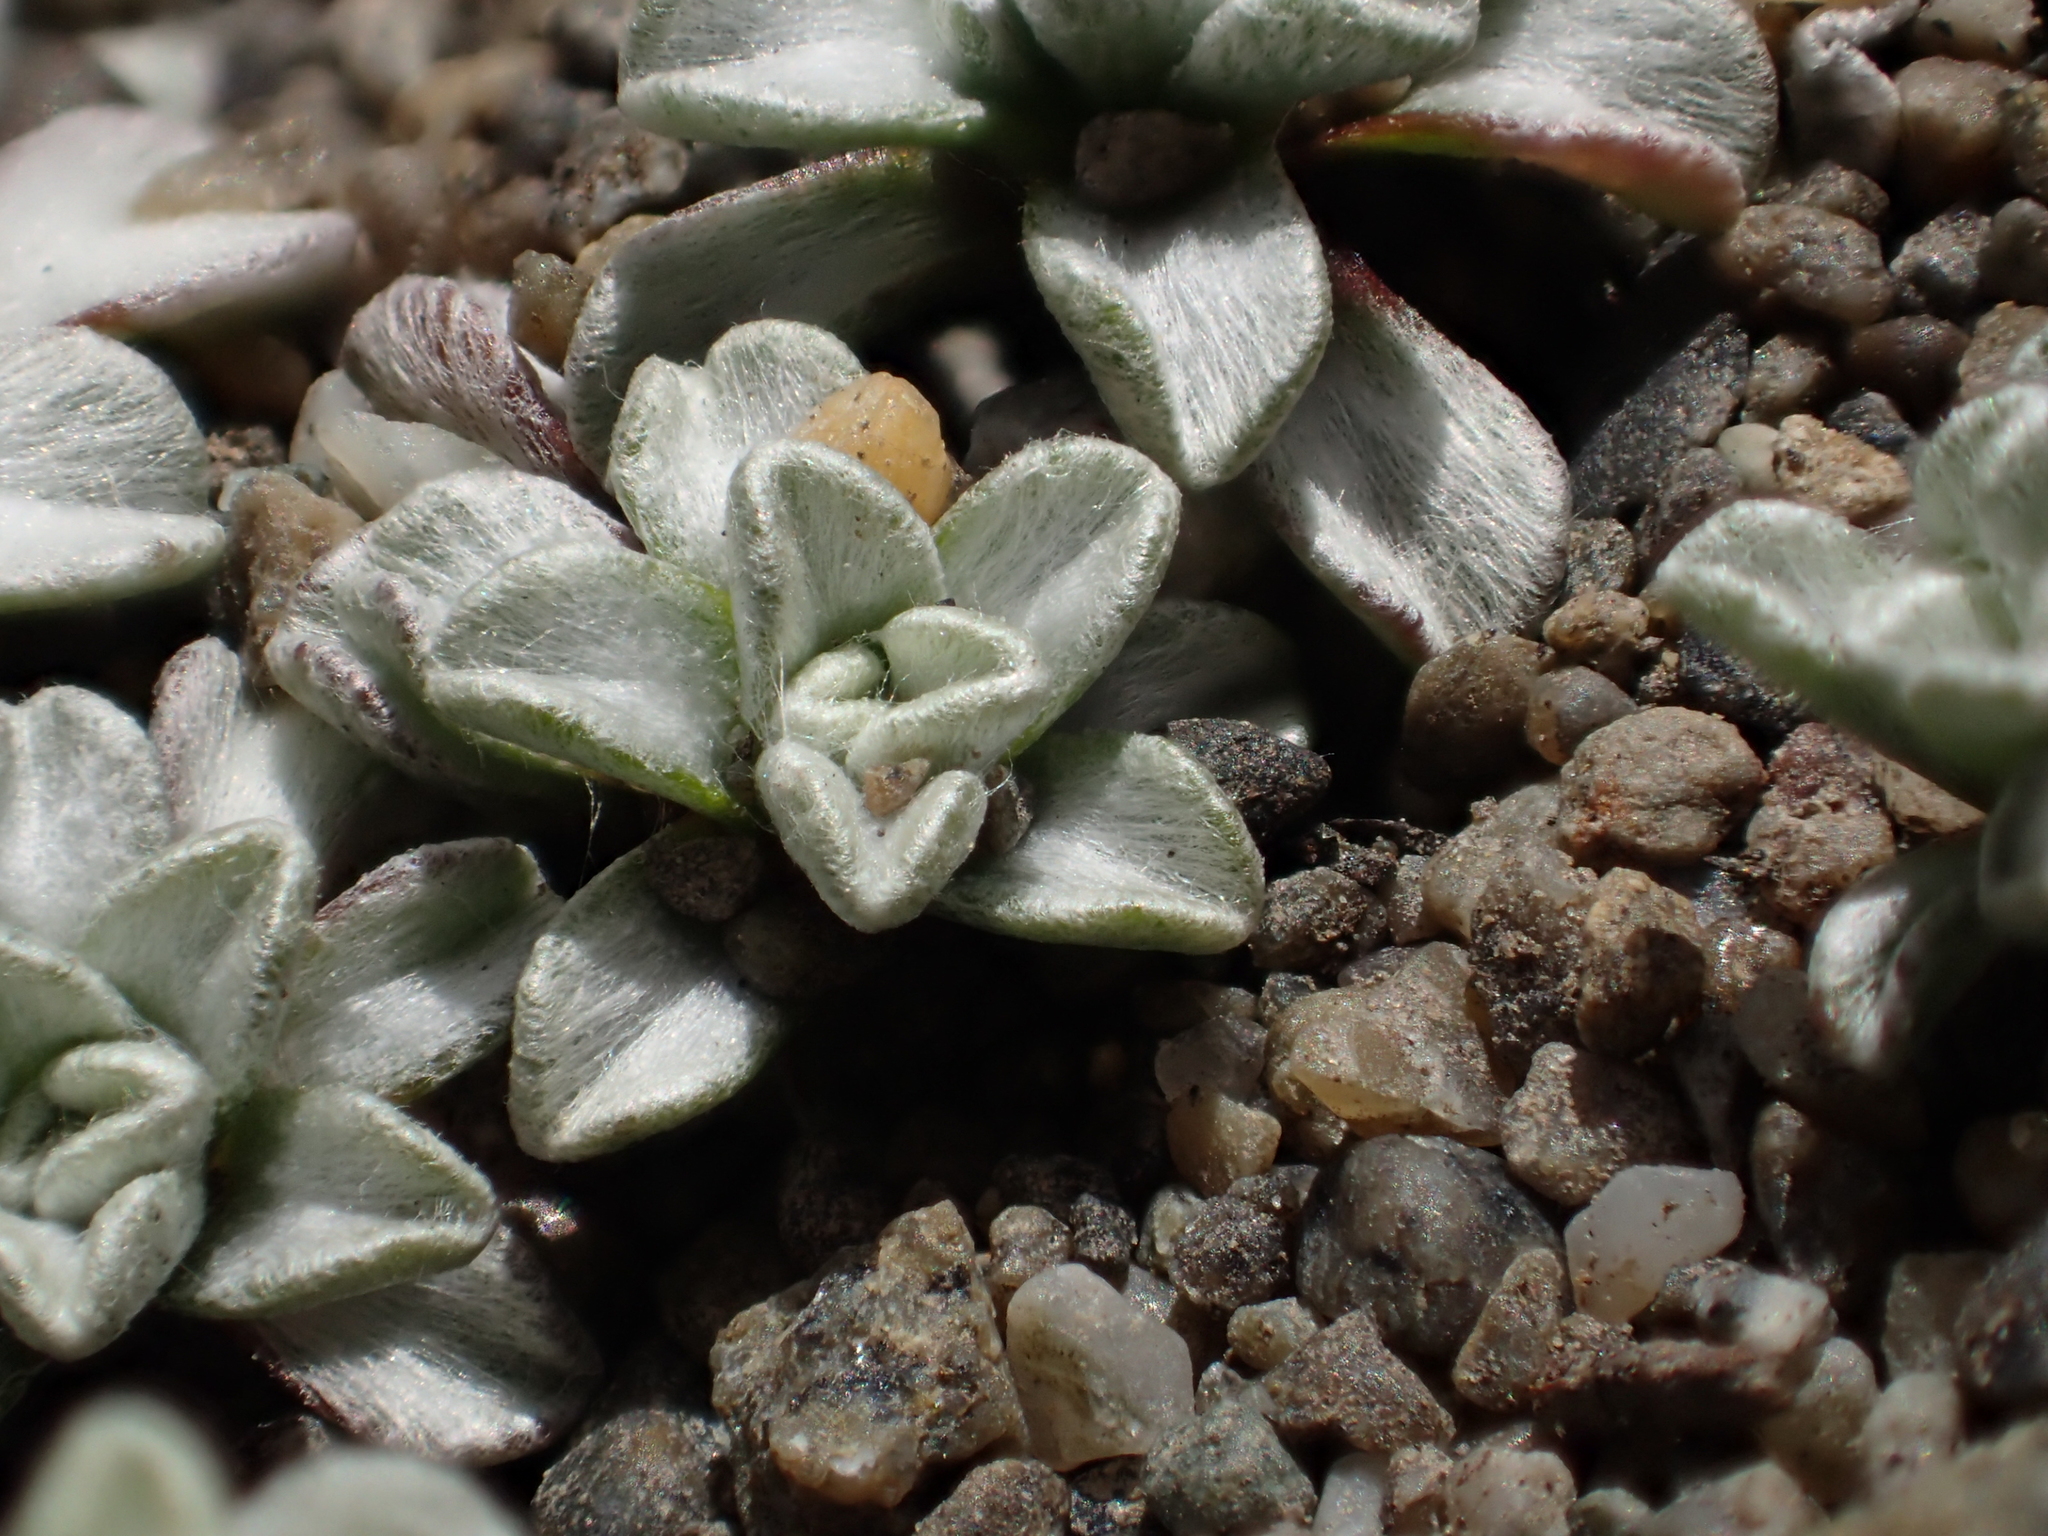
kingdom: Plantae
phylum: Tracheophyta
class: Magnoliopsida
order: Asterales
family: Asteraceae
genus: Raoulia
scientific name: Raoulia hookeri
